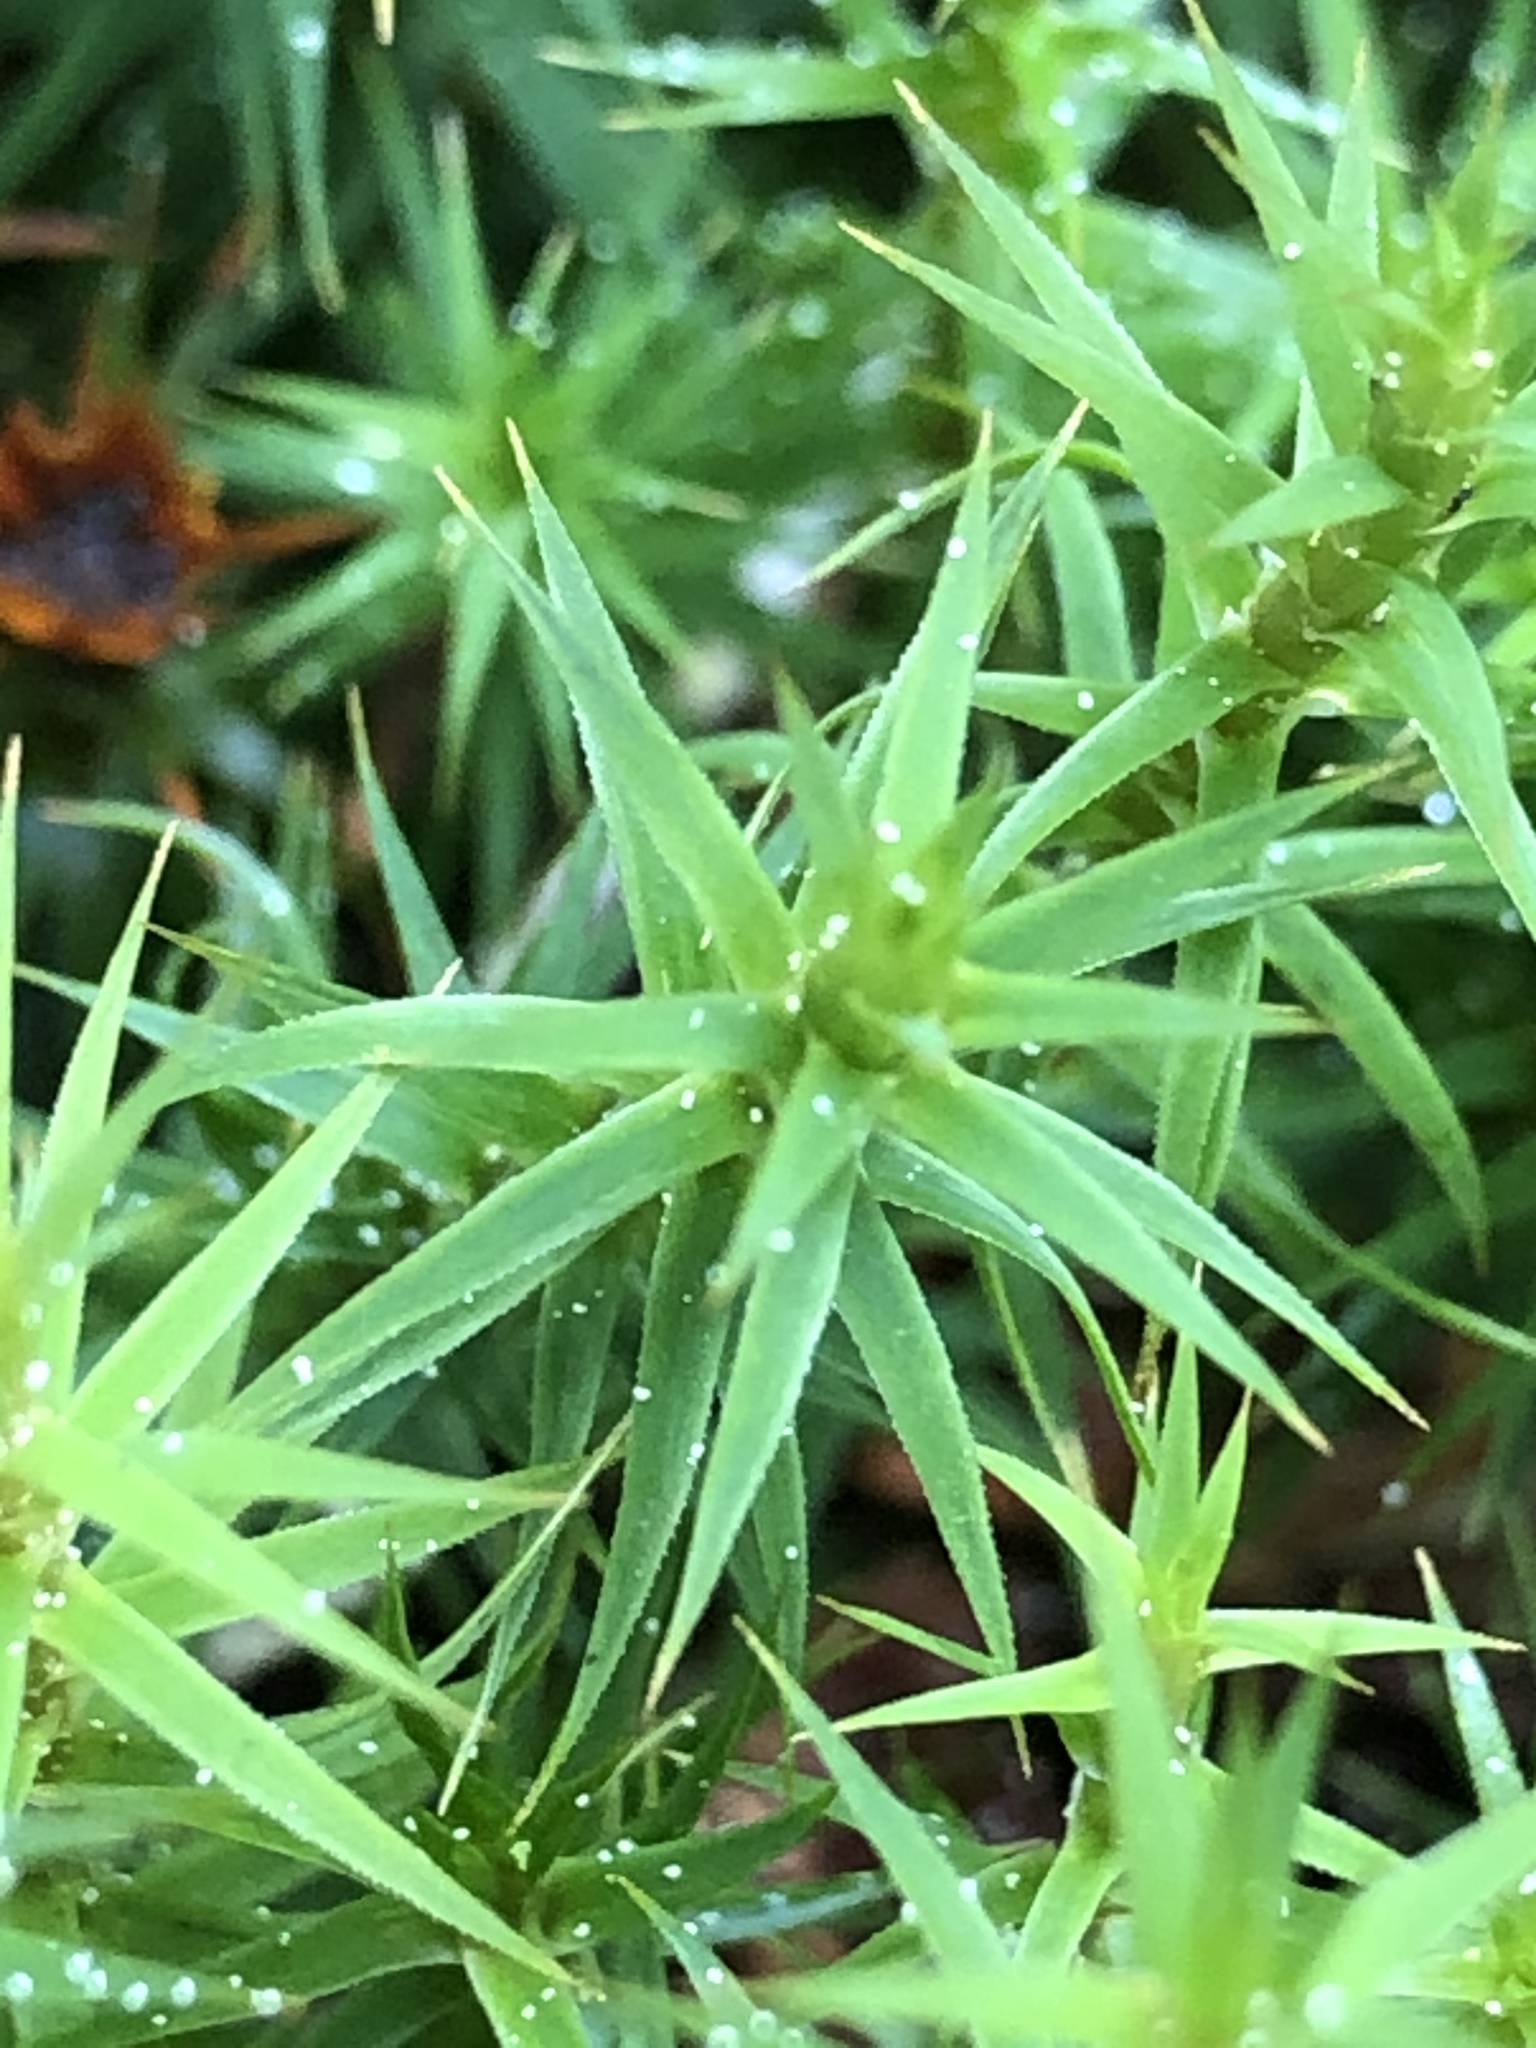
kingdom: Plantae
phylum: Bryophyta
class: Polytrichopsida
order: Polytrichales
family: Polytrichaceae
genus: Polytrichum
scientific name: Polytrichum formosum
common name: Bank haircap moss
